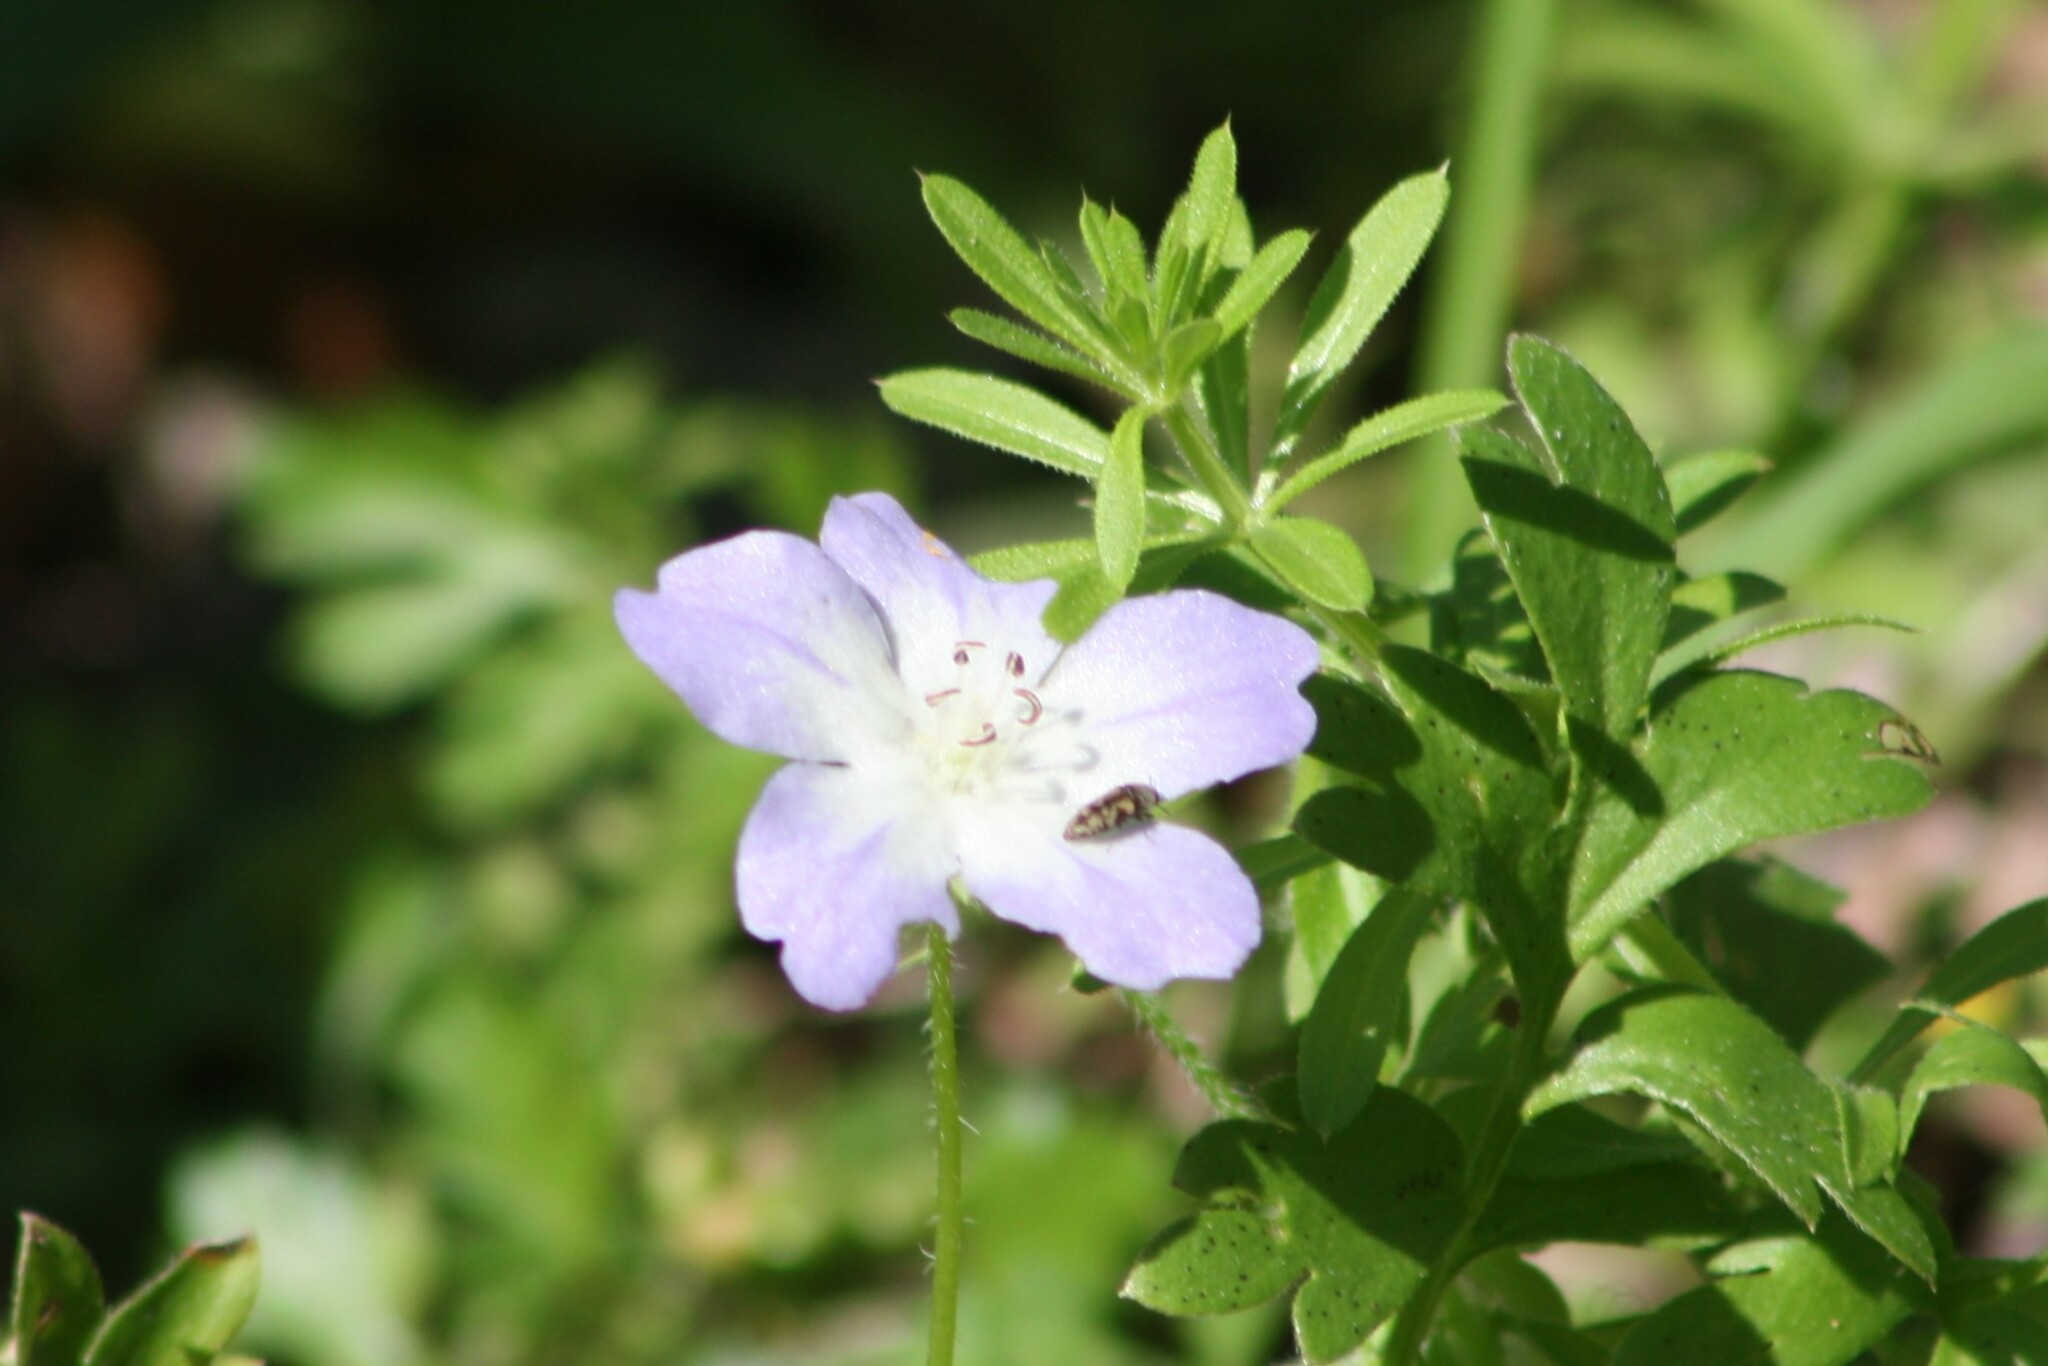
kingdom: Plantae
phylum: Tracheophyta
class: Magnoliopsida
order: Boraginales
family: Hydrophyllaceae
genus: Nemophila
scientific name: Nemophila phacelioides
